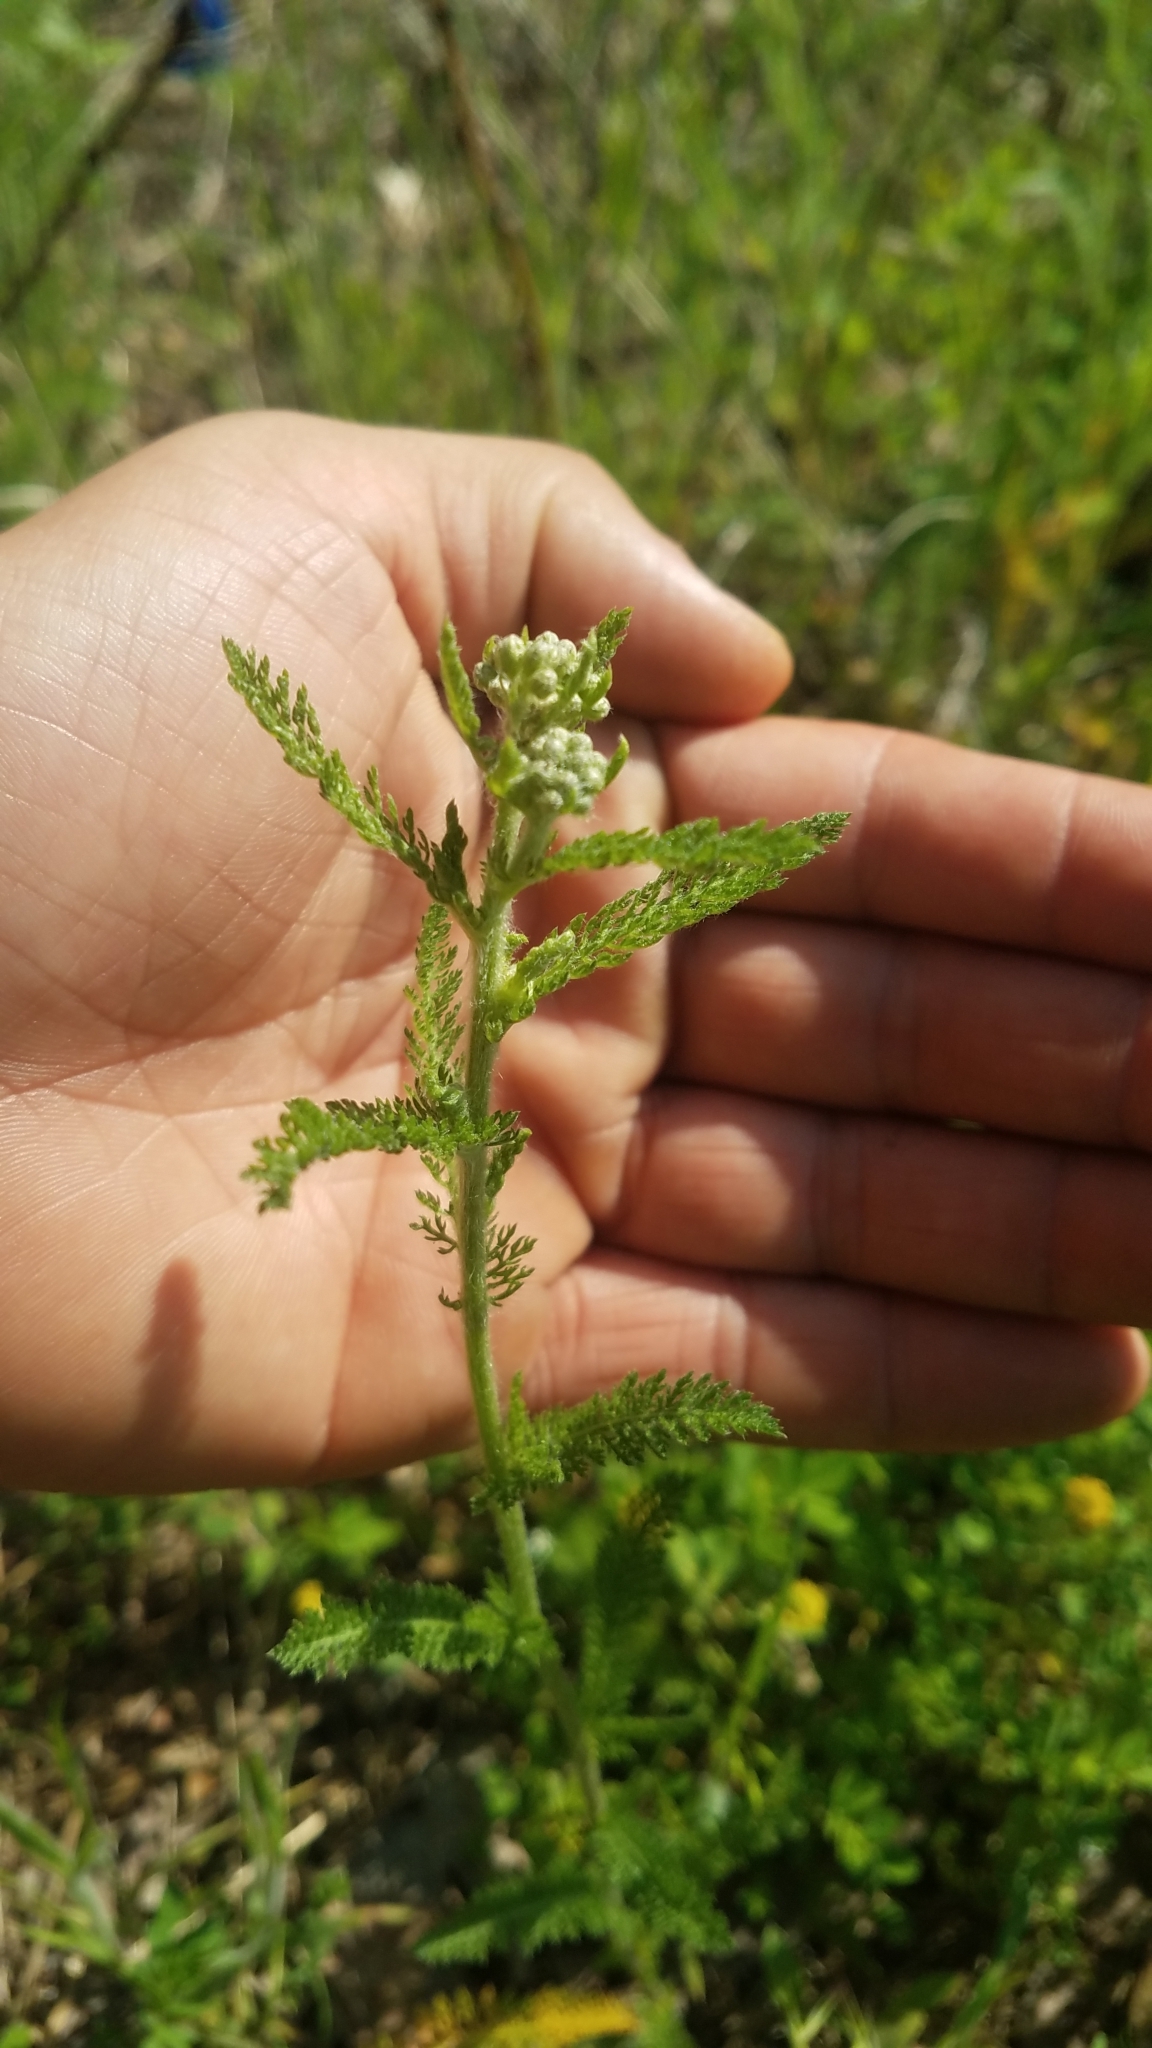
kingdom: Plantae
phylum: Tracheophyta
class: Magnoliopsida
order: Asterales
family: Asteraceae
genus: Achillea
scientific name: Achillea millefolium
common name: Yarrow
